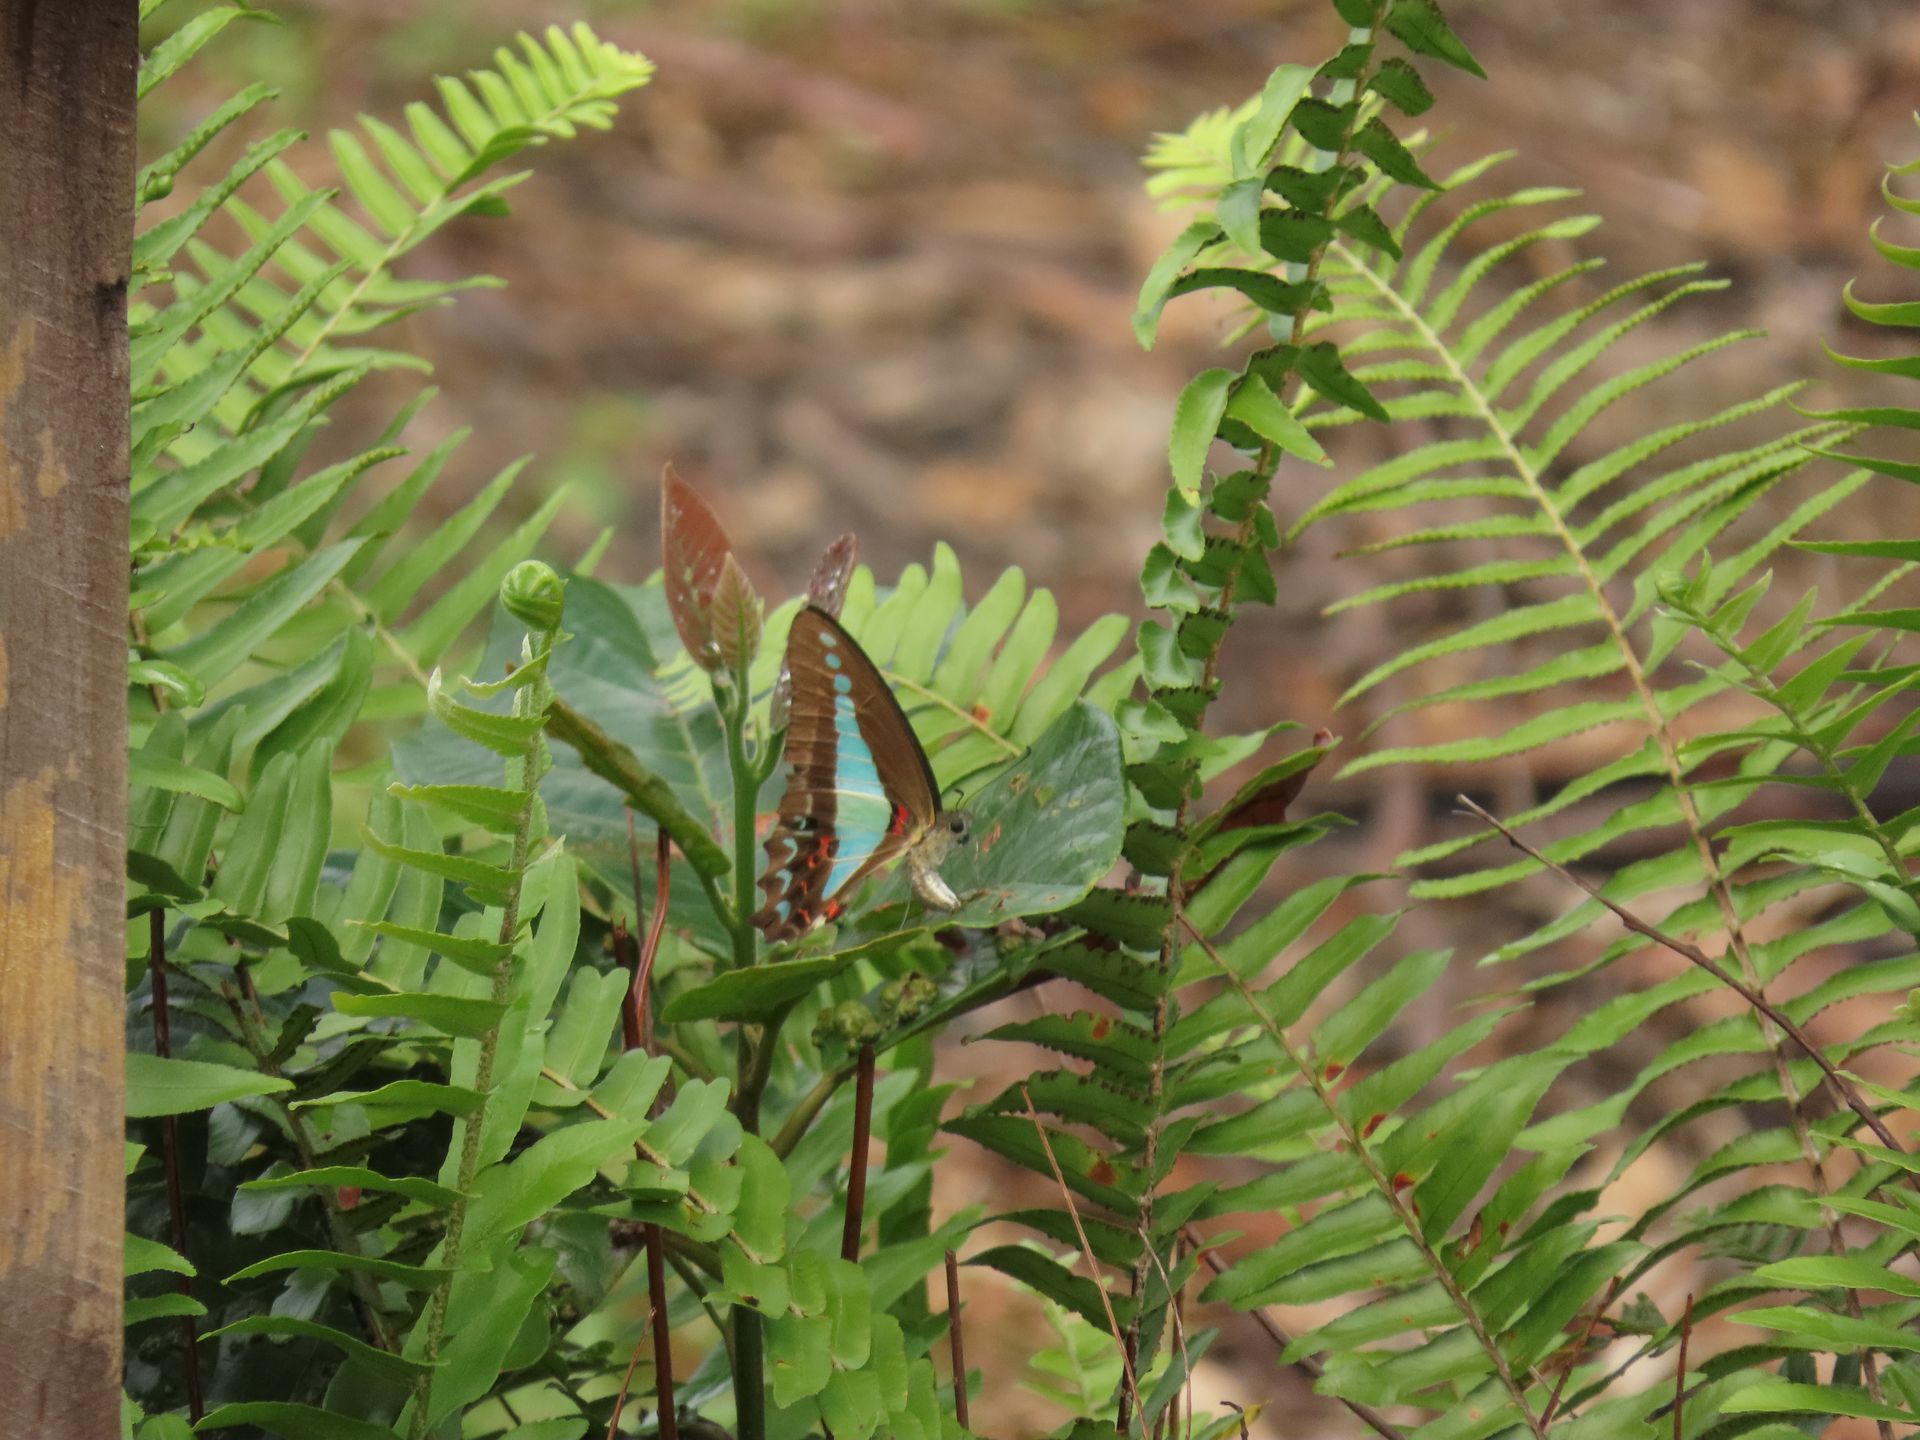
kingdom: Animalia
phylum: Arthropoda
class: Insecta
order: Lepidoptera
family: Papilionidae
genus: Graphium
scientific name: Graphium
